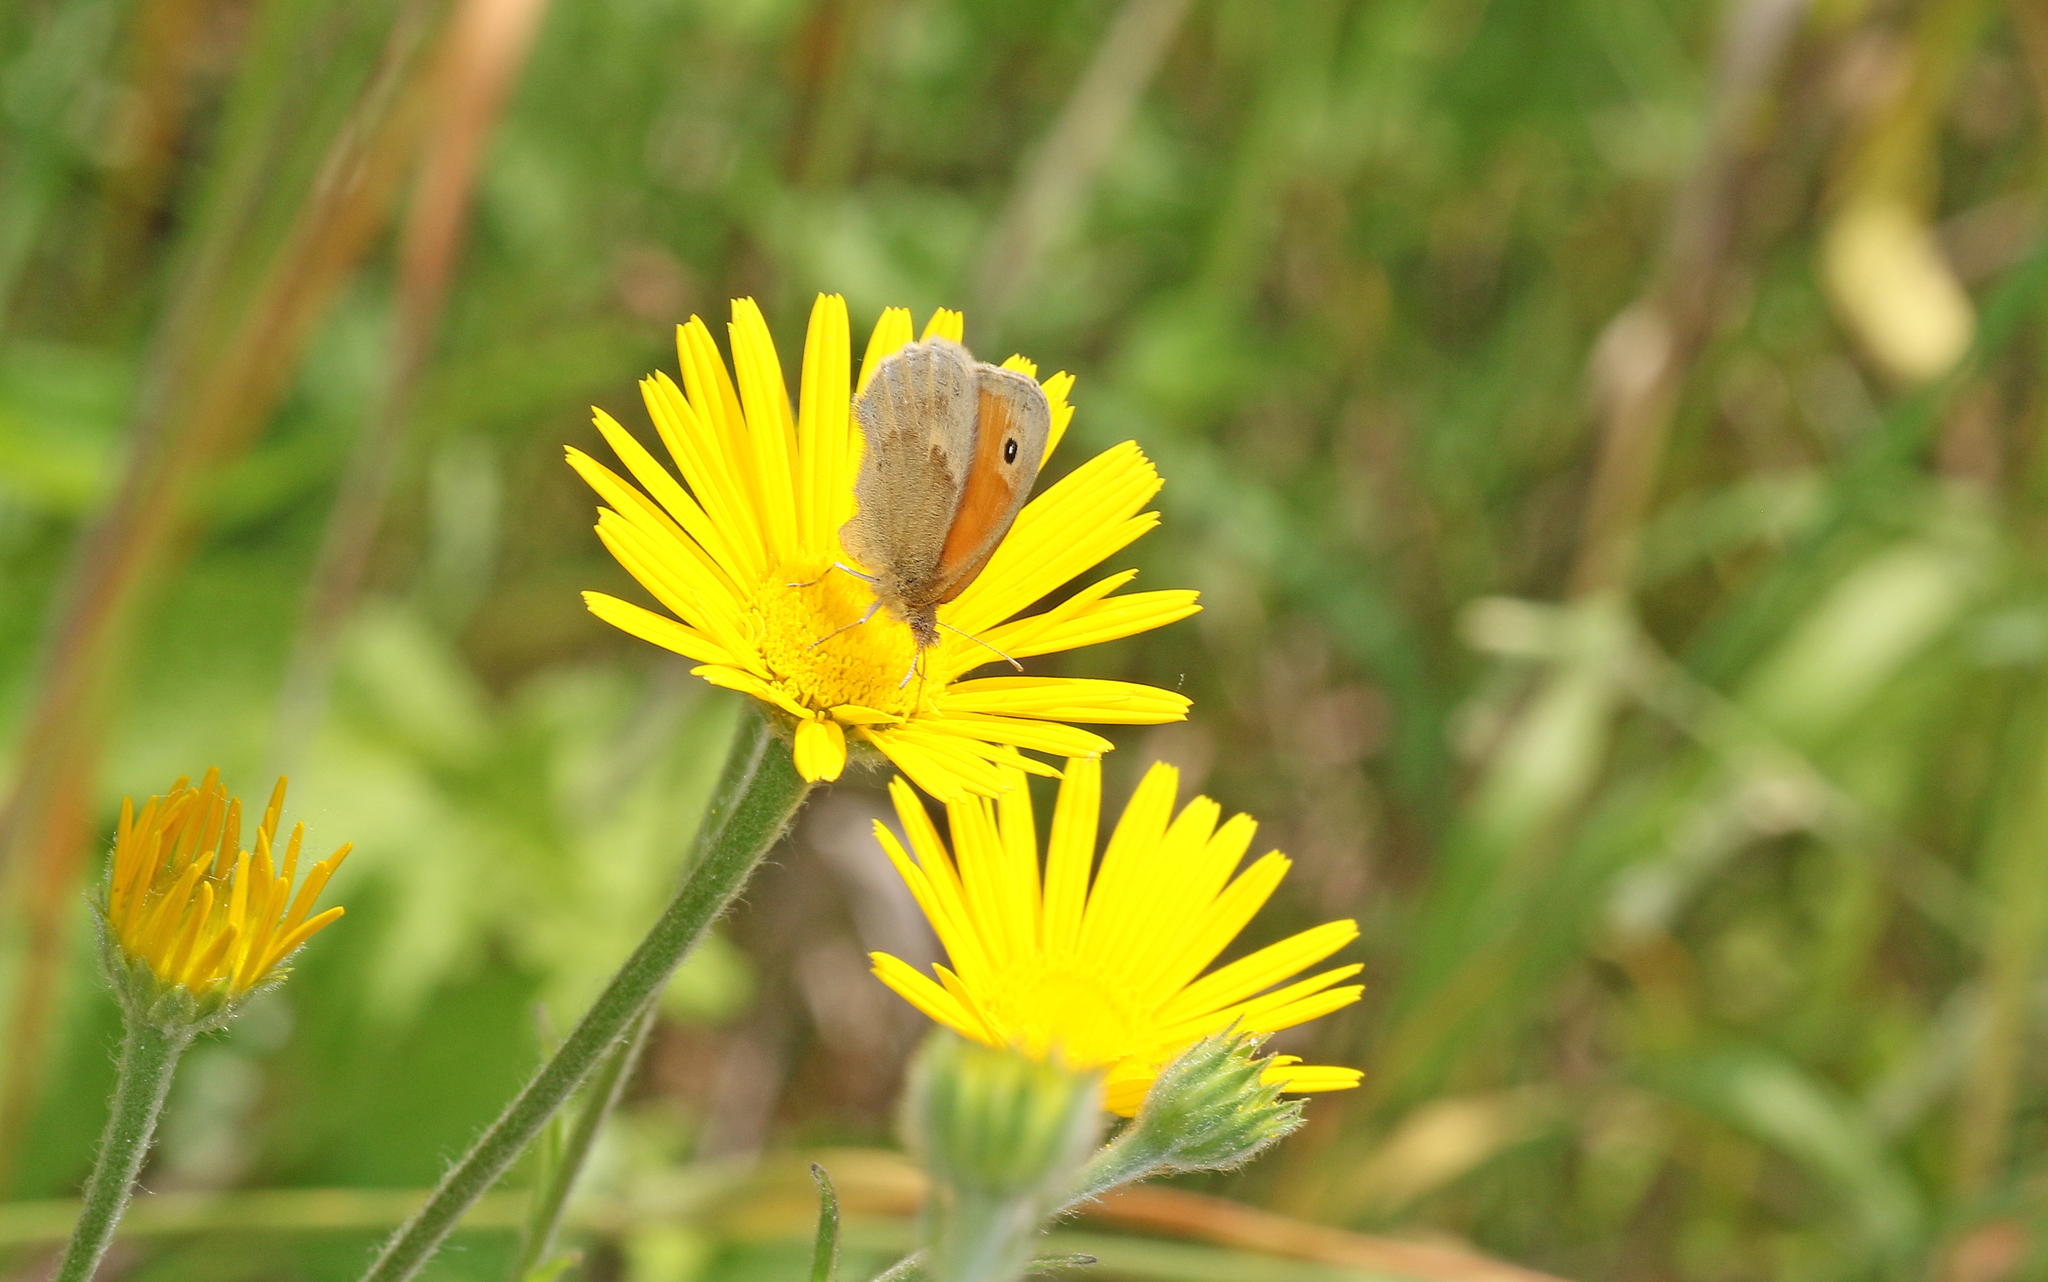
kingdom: Animalia
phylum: Arthropoda
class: Insecta
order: Lepidoptera
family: Nymphalidae
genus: Coenonympha
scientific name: Coenonympha pamphilus
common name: Small heath
